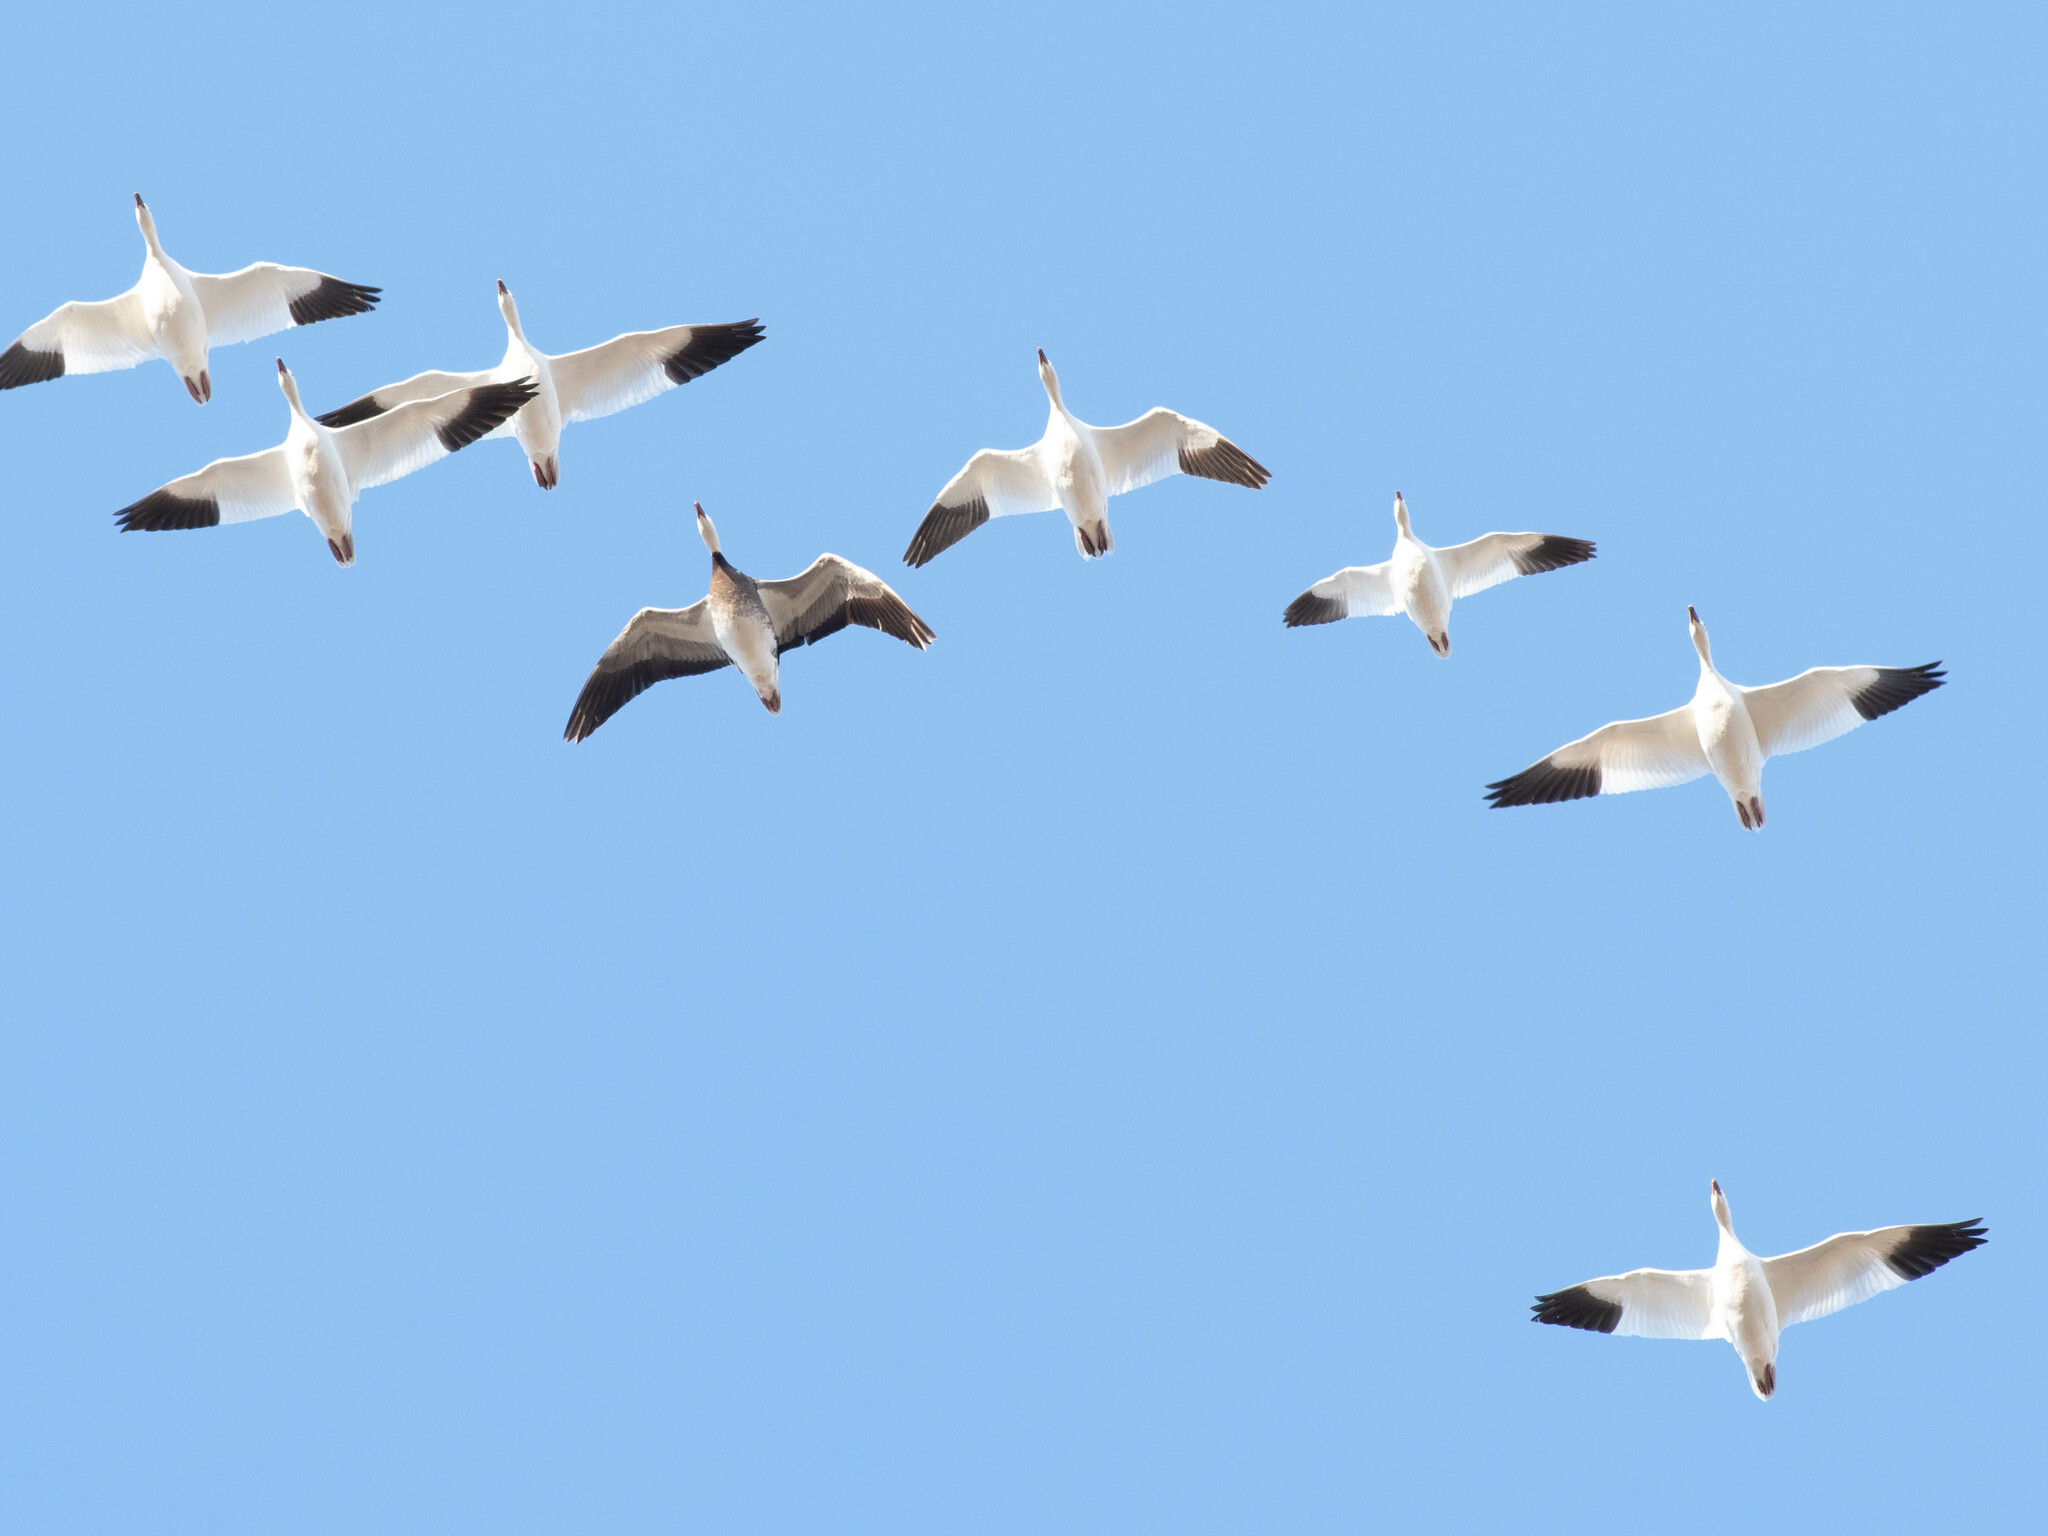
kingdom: Animalia
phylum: Chordata
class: Aves
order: Anseriformes
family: Anatidae
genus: Anser
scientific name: Anser caerulescens
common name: Snow goose
